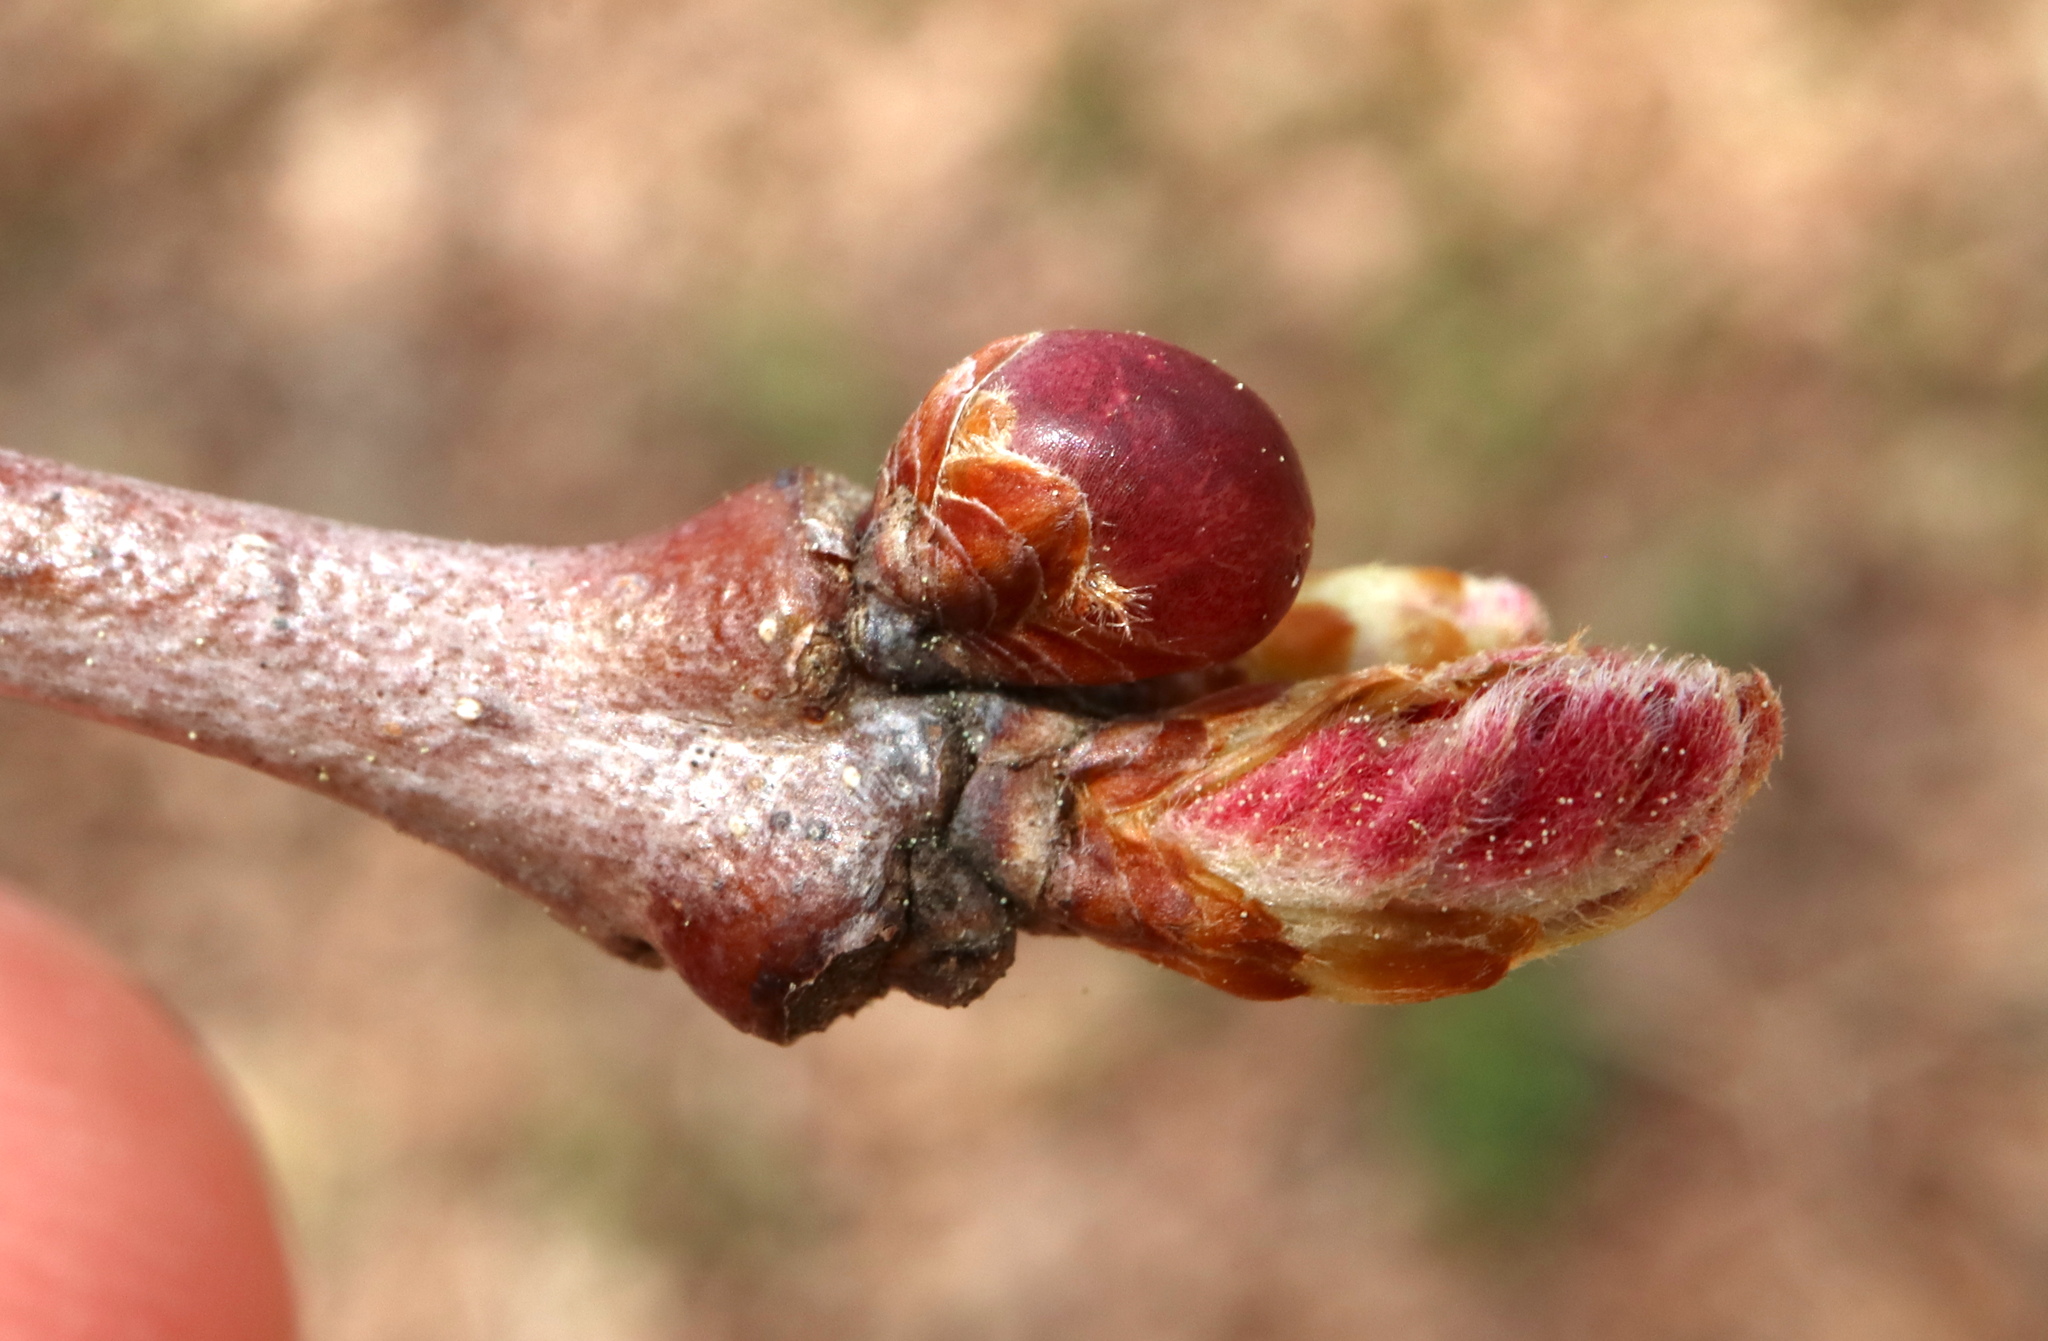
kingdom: Animalia
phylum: Arthropoda
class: Insecta
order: Hymenoptera
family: Cynipidae
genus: Neuroterus
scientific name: Neuroterus
